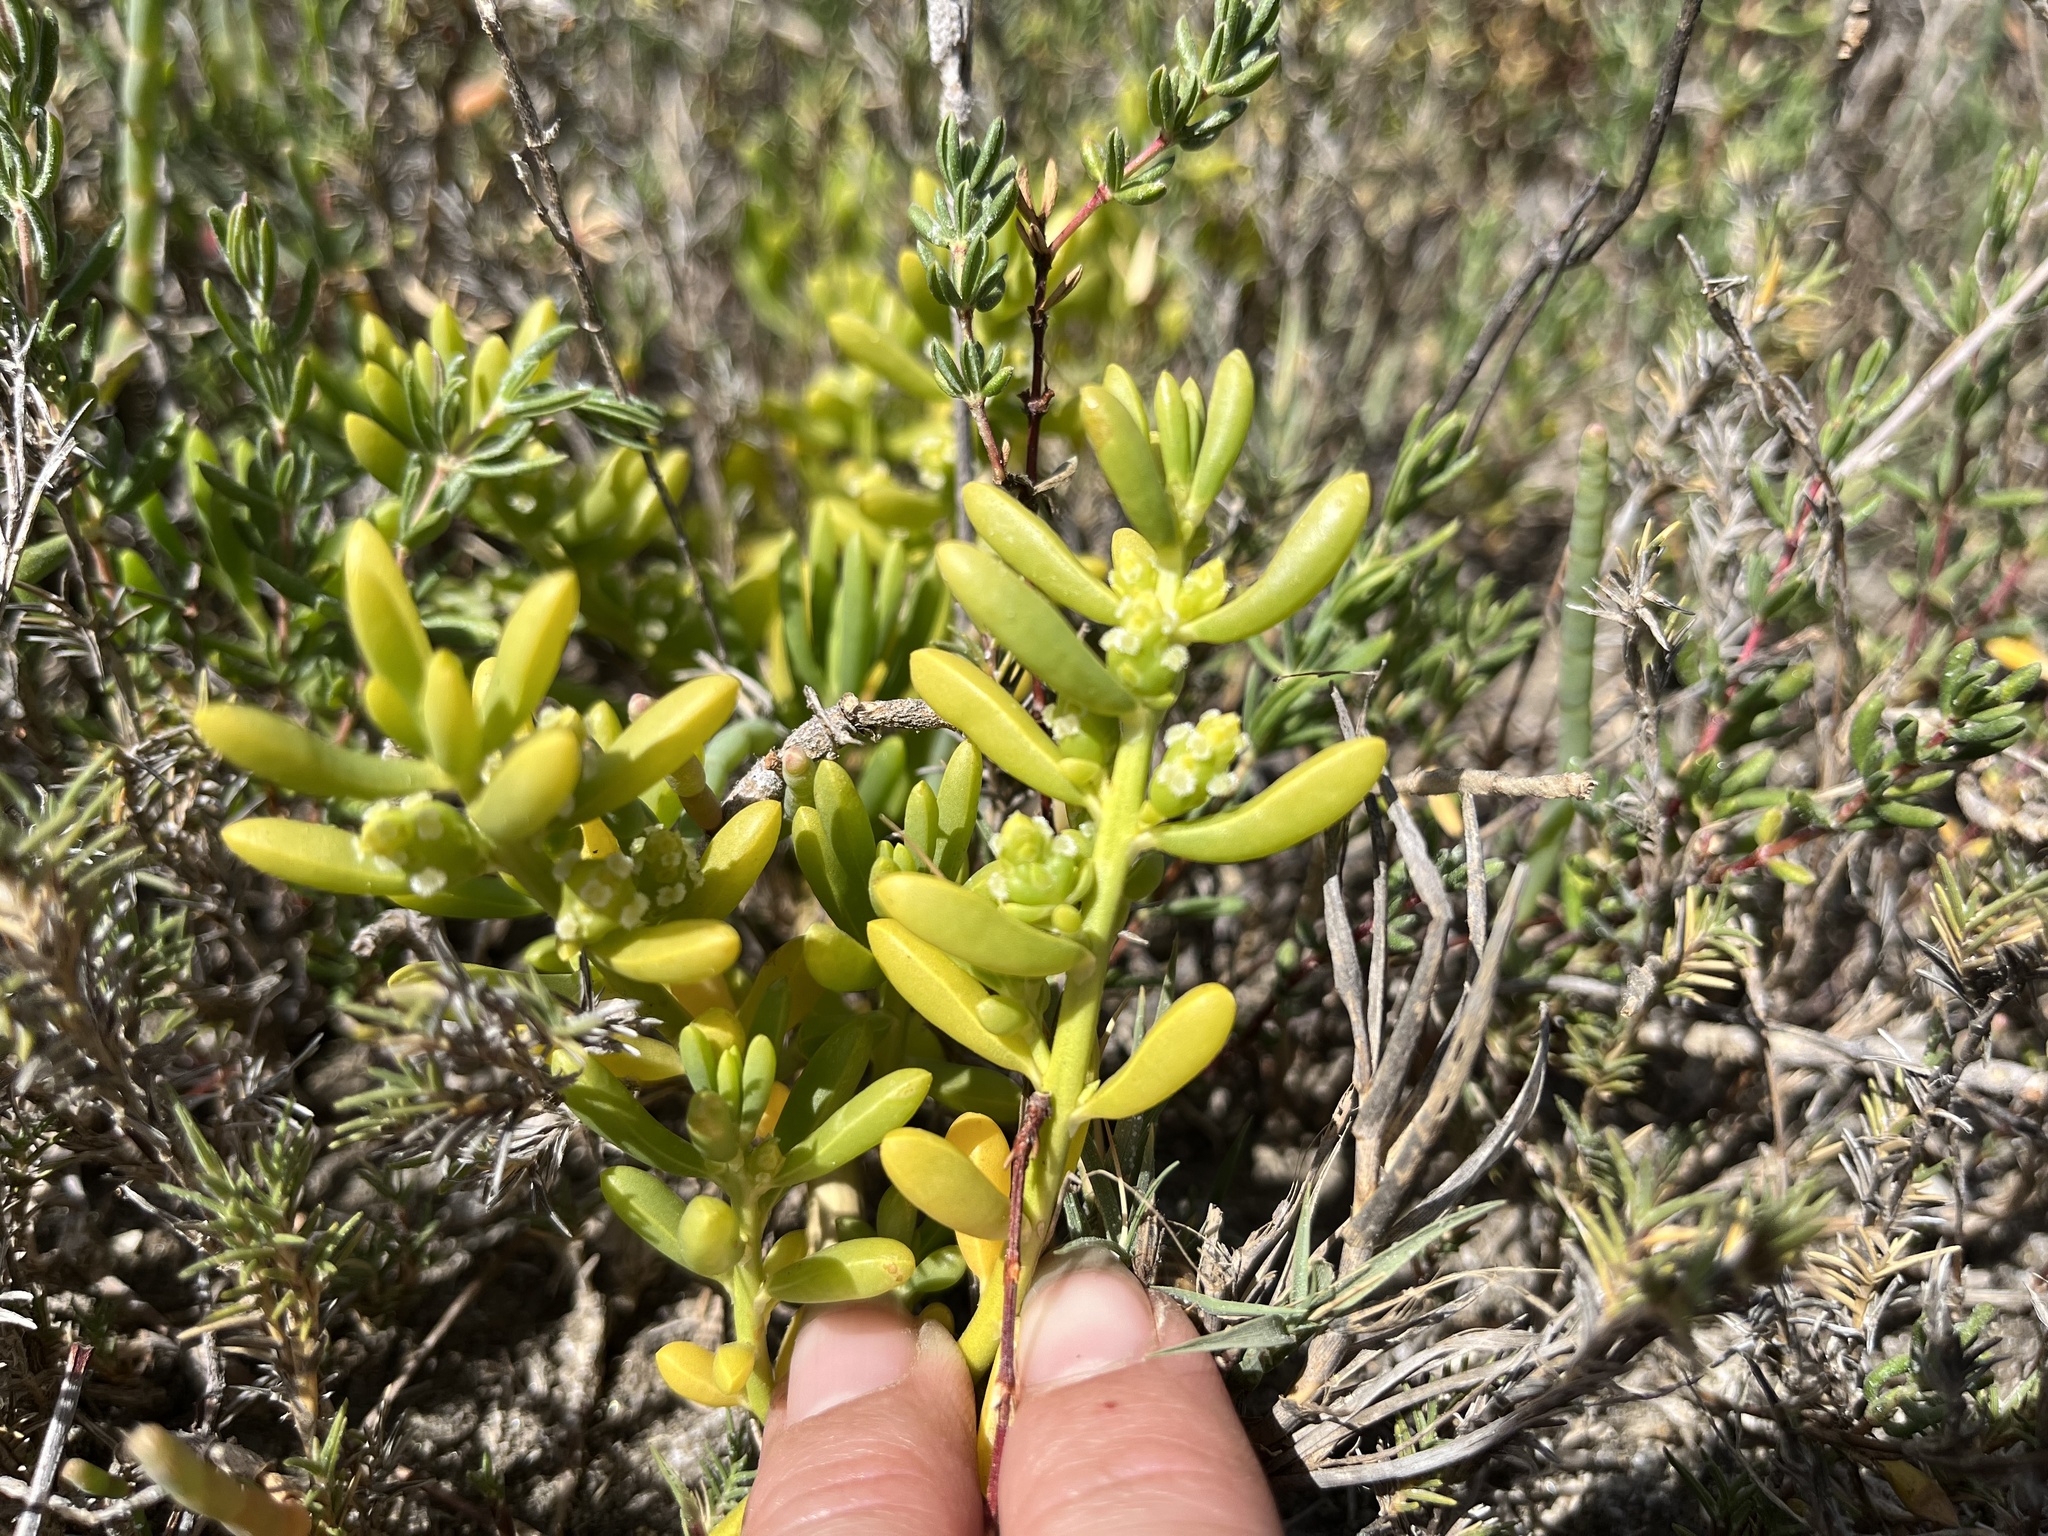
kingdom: Plantae
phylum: Tracheophyta
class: Magnoliopsida
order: Brassicales
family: Bataceae
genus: Batis
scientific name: Batis maritima
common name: Turtleweed
